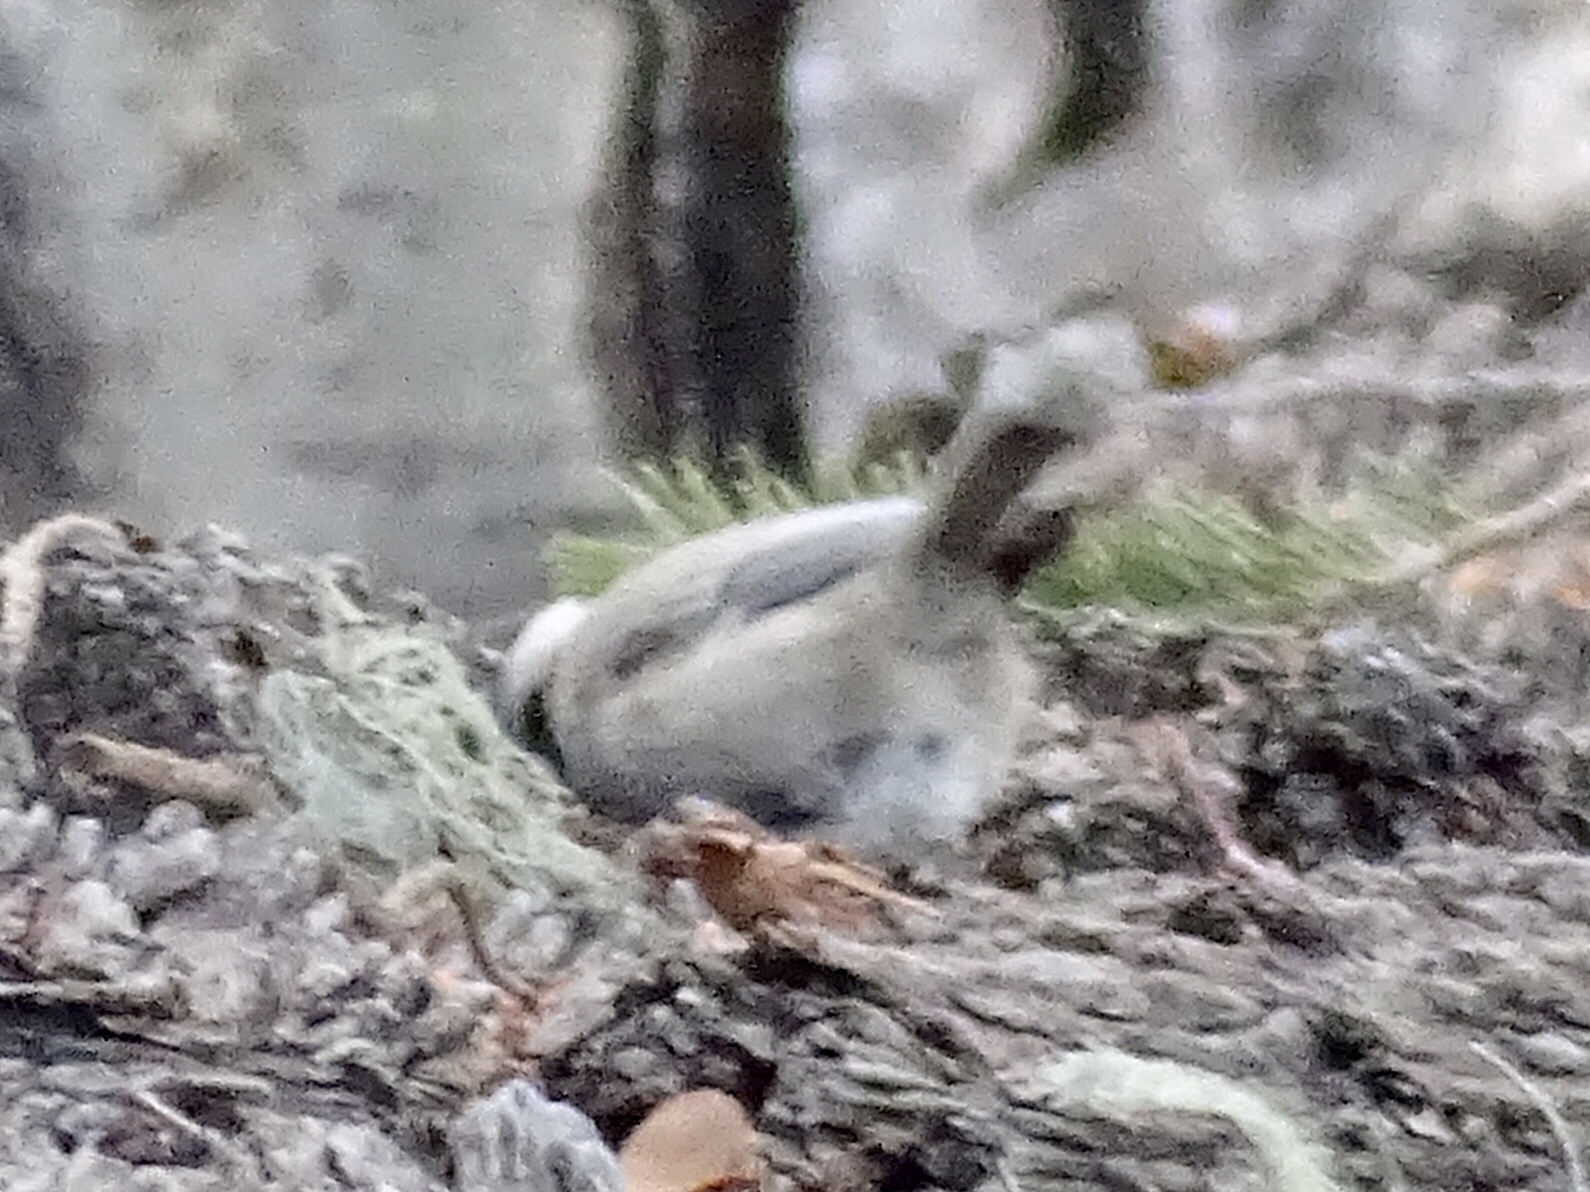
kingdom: Animalia
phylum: Chordata
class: Aves
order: Passeriformes
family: Paridae
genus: Poecile
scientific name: Poecile gambeli
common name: Mountain chickadee
